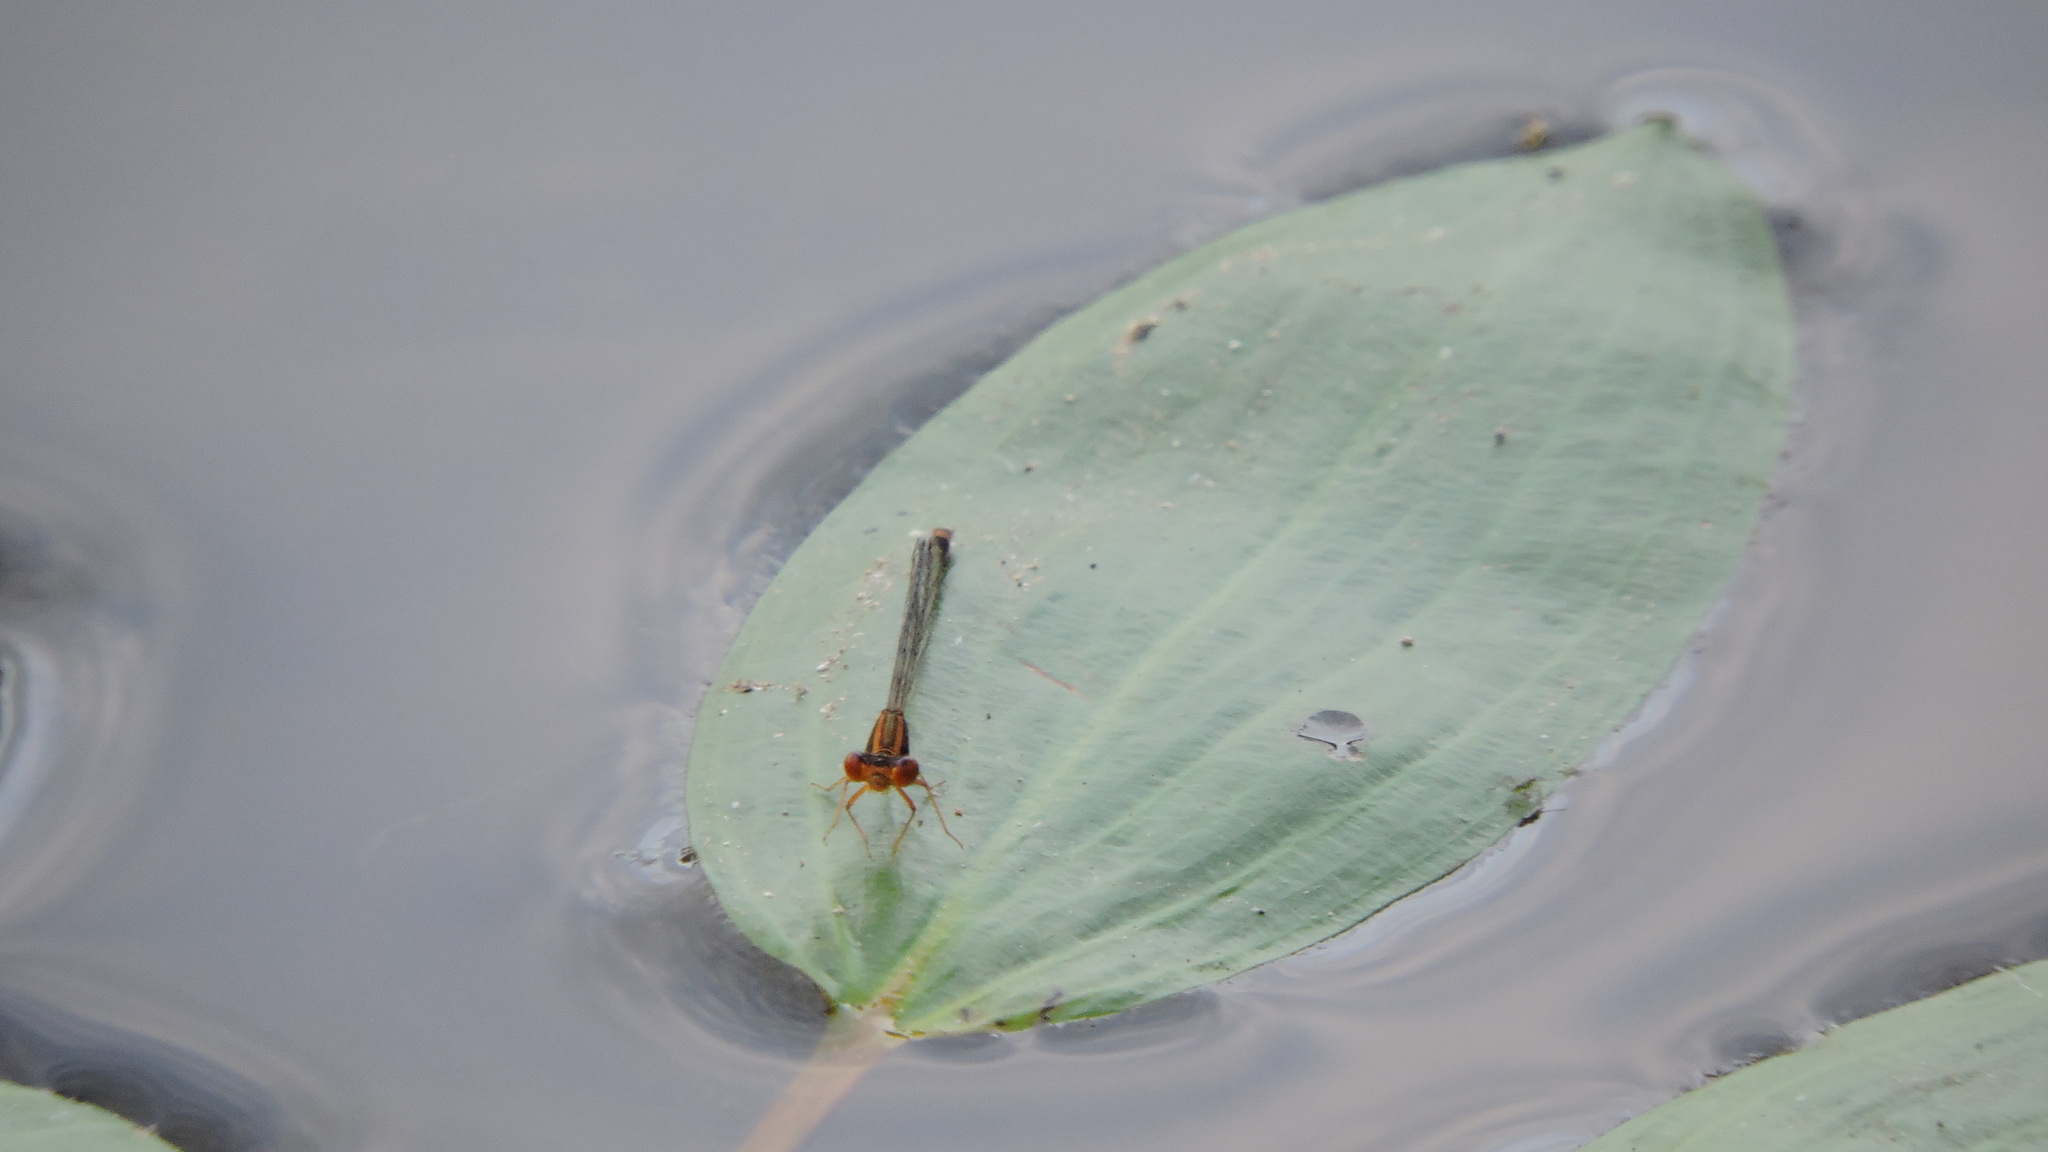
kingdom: Animalia
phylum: Arthropoda
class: Insecta
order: Odonata
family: Coenagrionidae
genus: Enallagma
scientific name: Enallagma signatum
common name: Orange bluet
